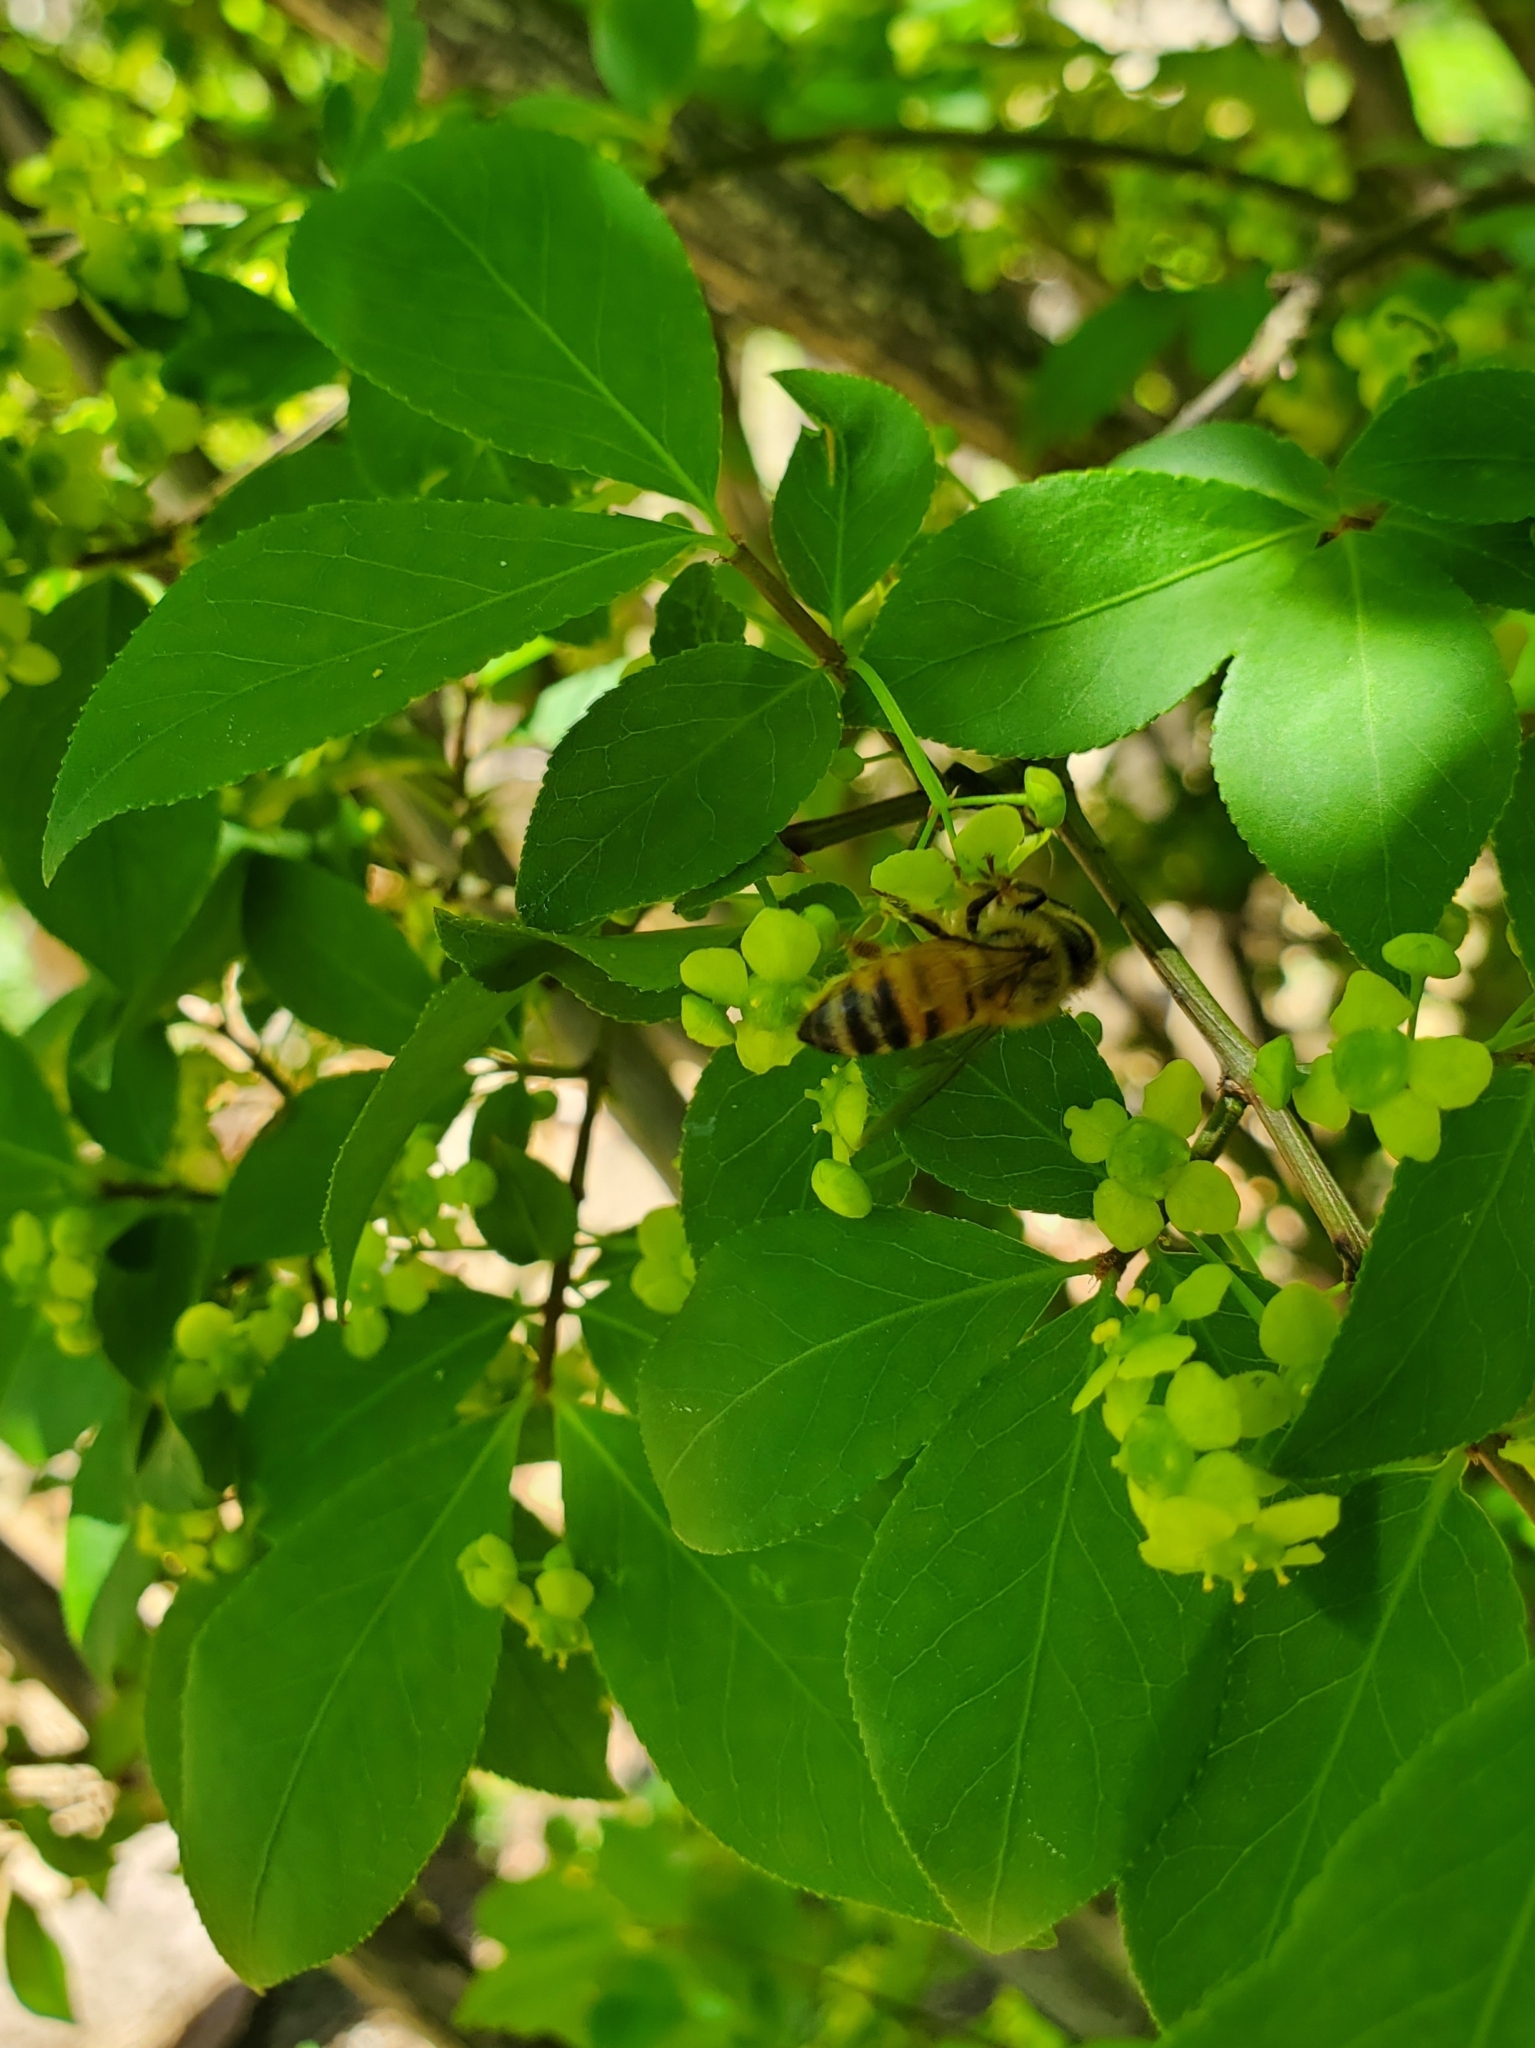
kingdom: Animalia
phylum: Arthropoda
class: Insecta
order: Hymenoptera
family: Apidae
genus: Apis
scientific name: Apis mellifera
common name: Honey bee
